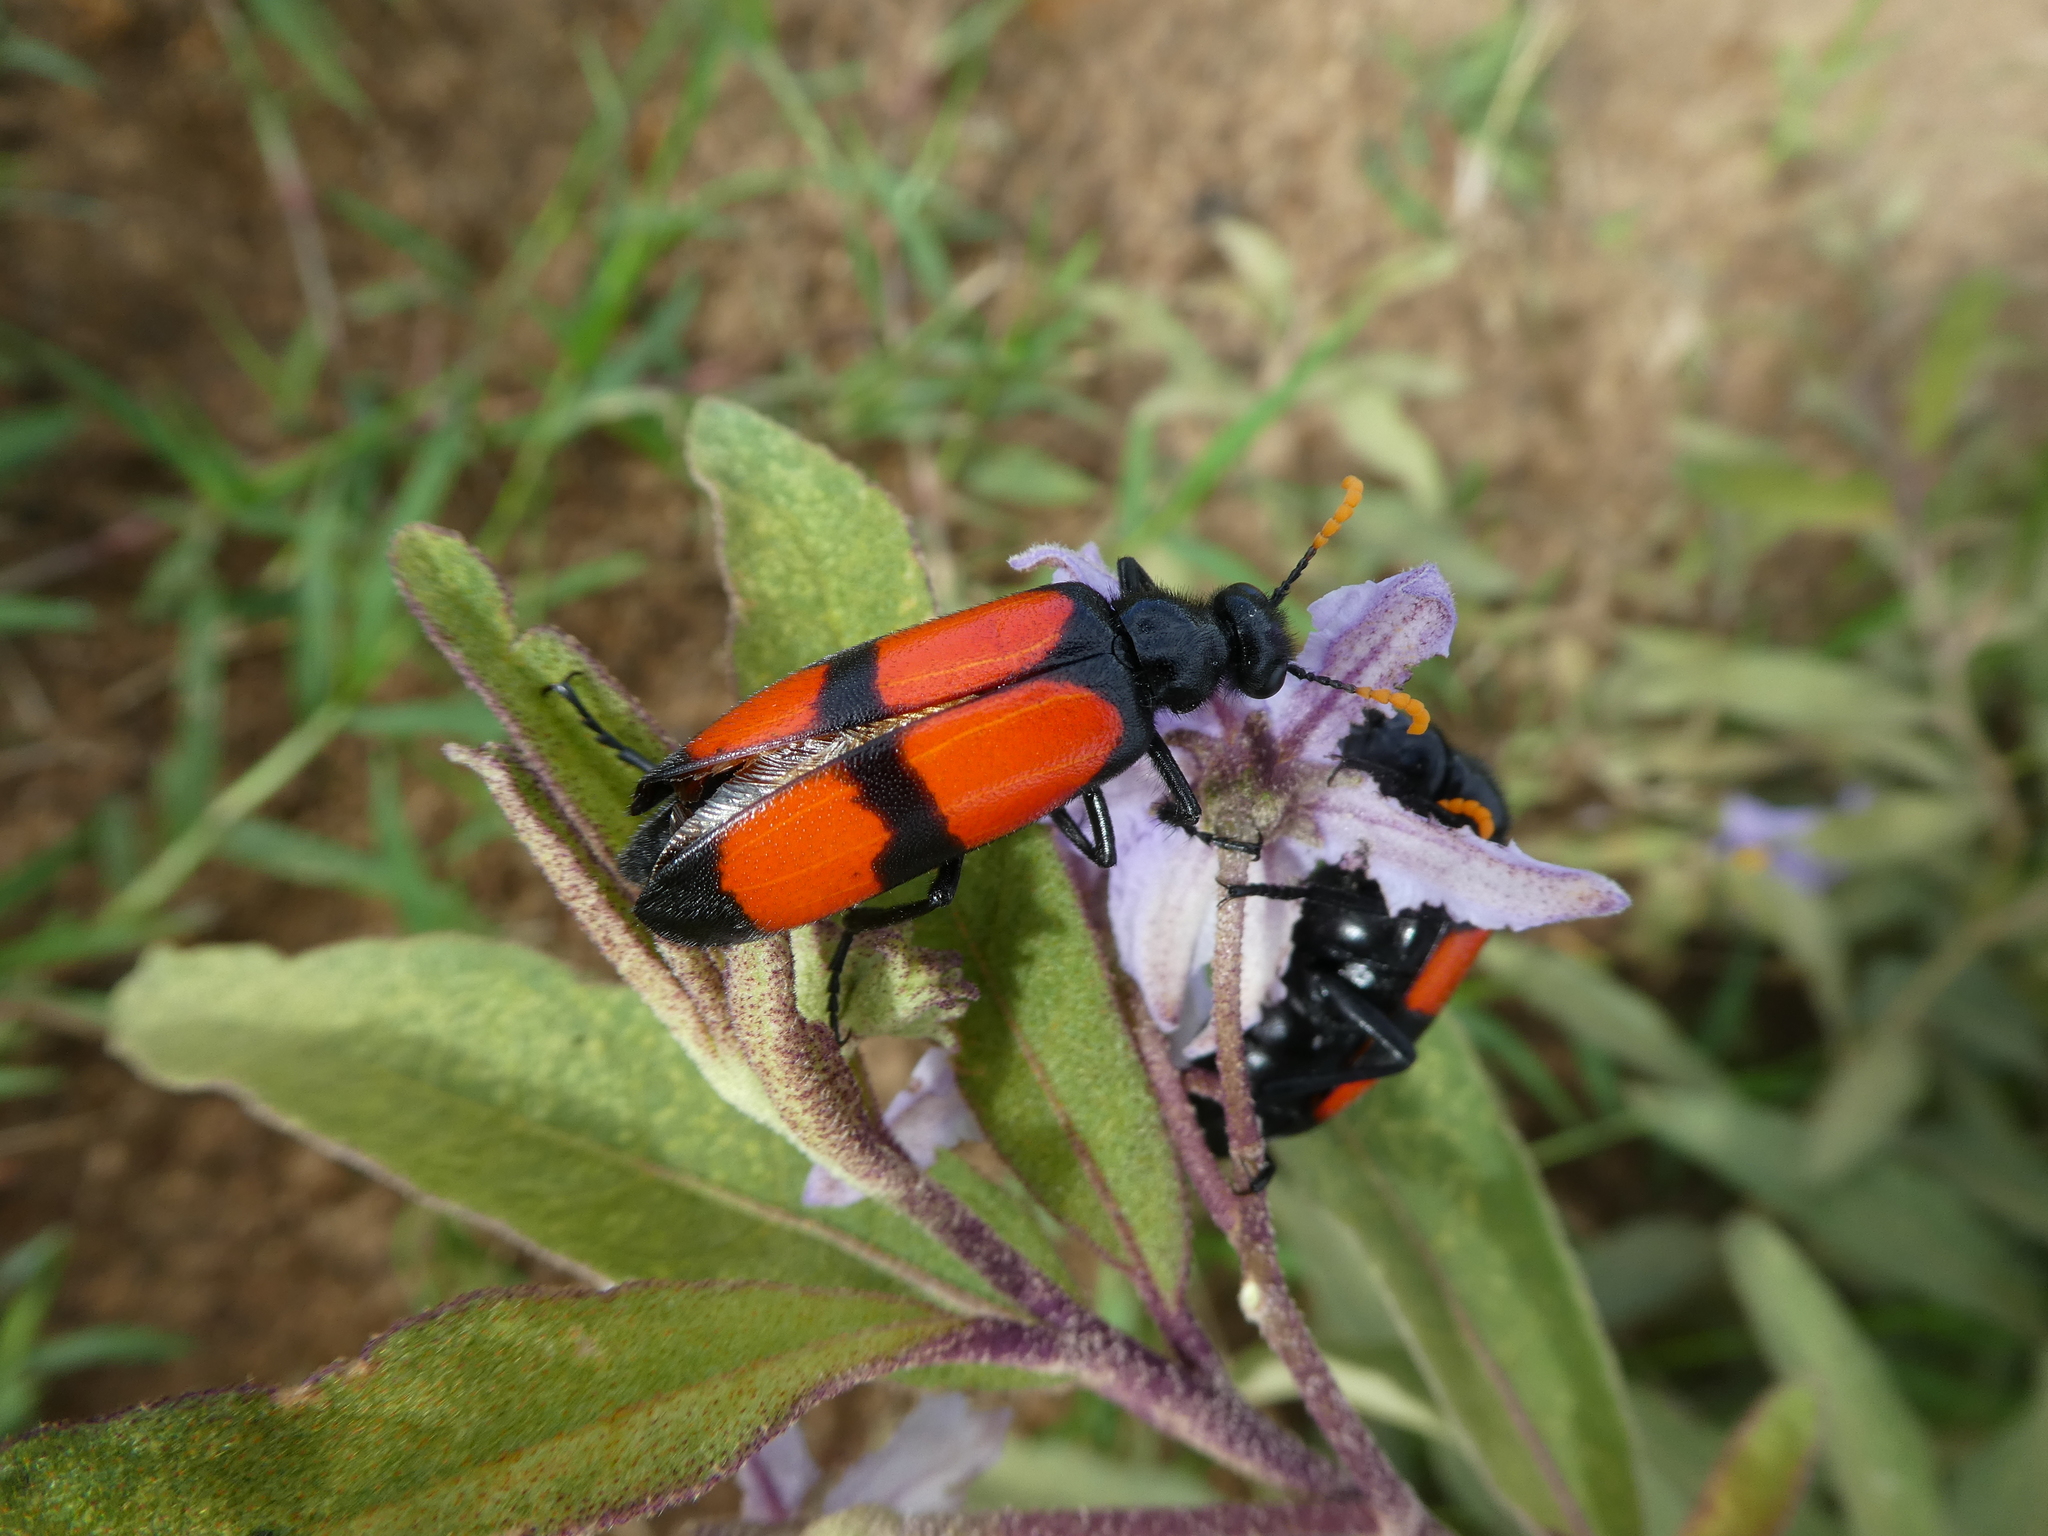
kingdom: Animalia
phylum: Arthropoda
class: Insecta
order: Coleoptera
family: Meloidae
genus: Hycleus
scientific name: Hycleus tekkensis
